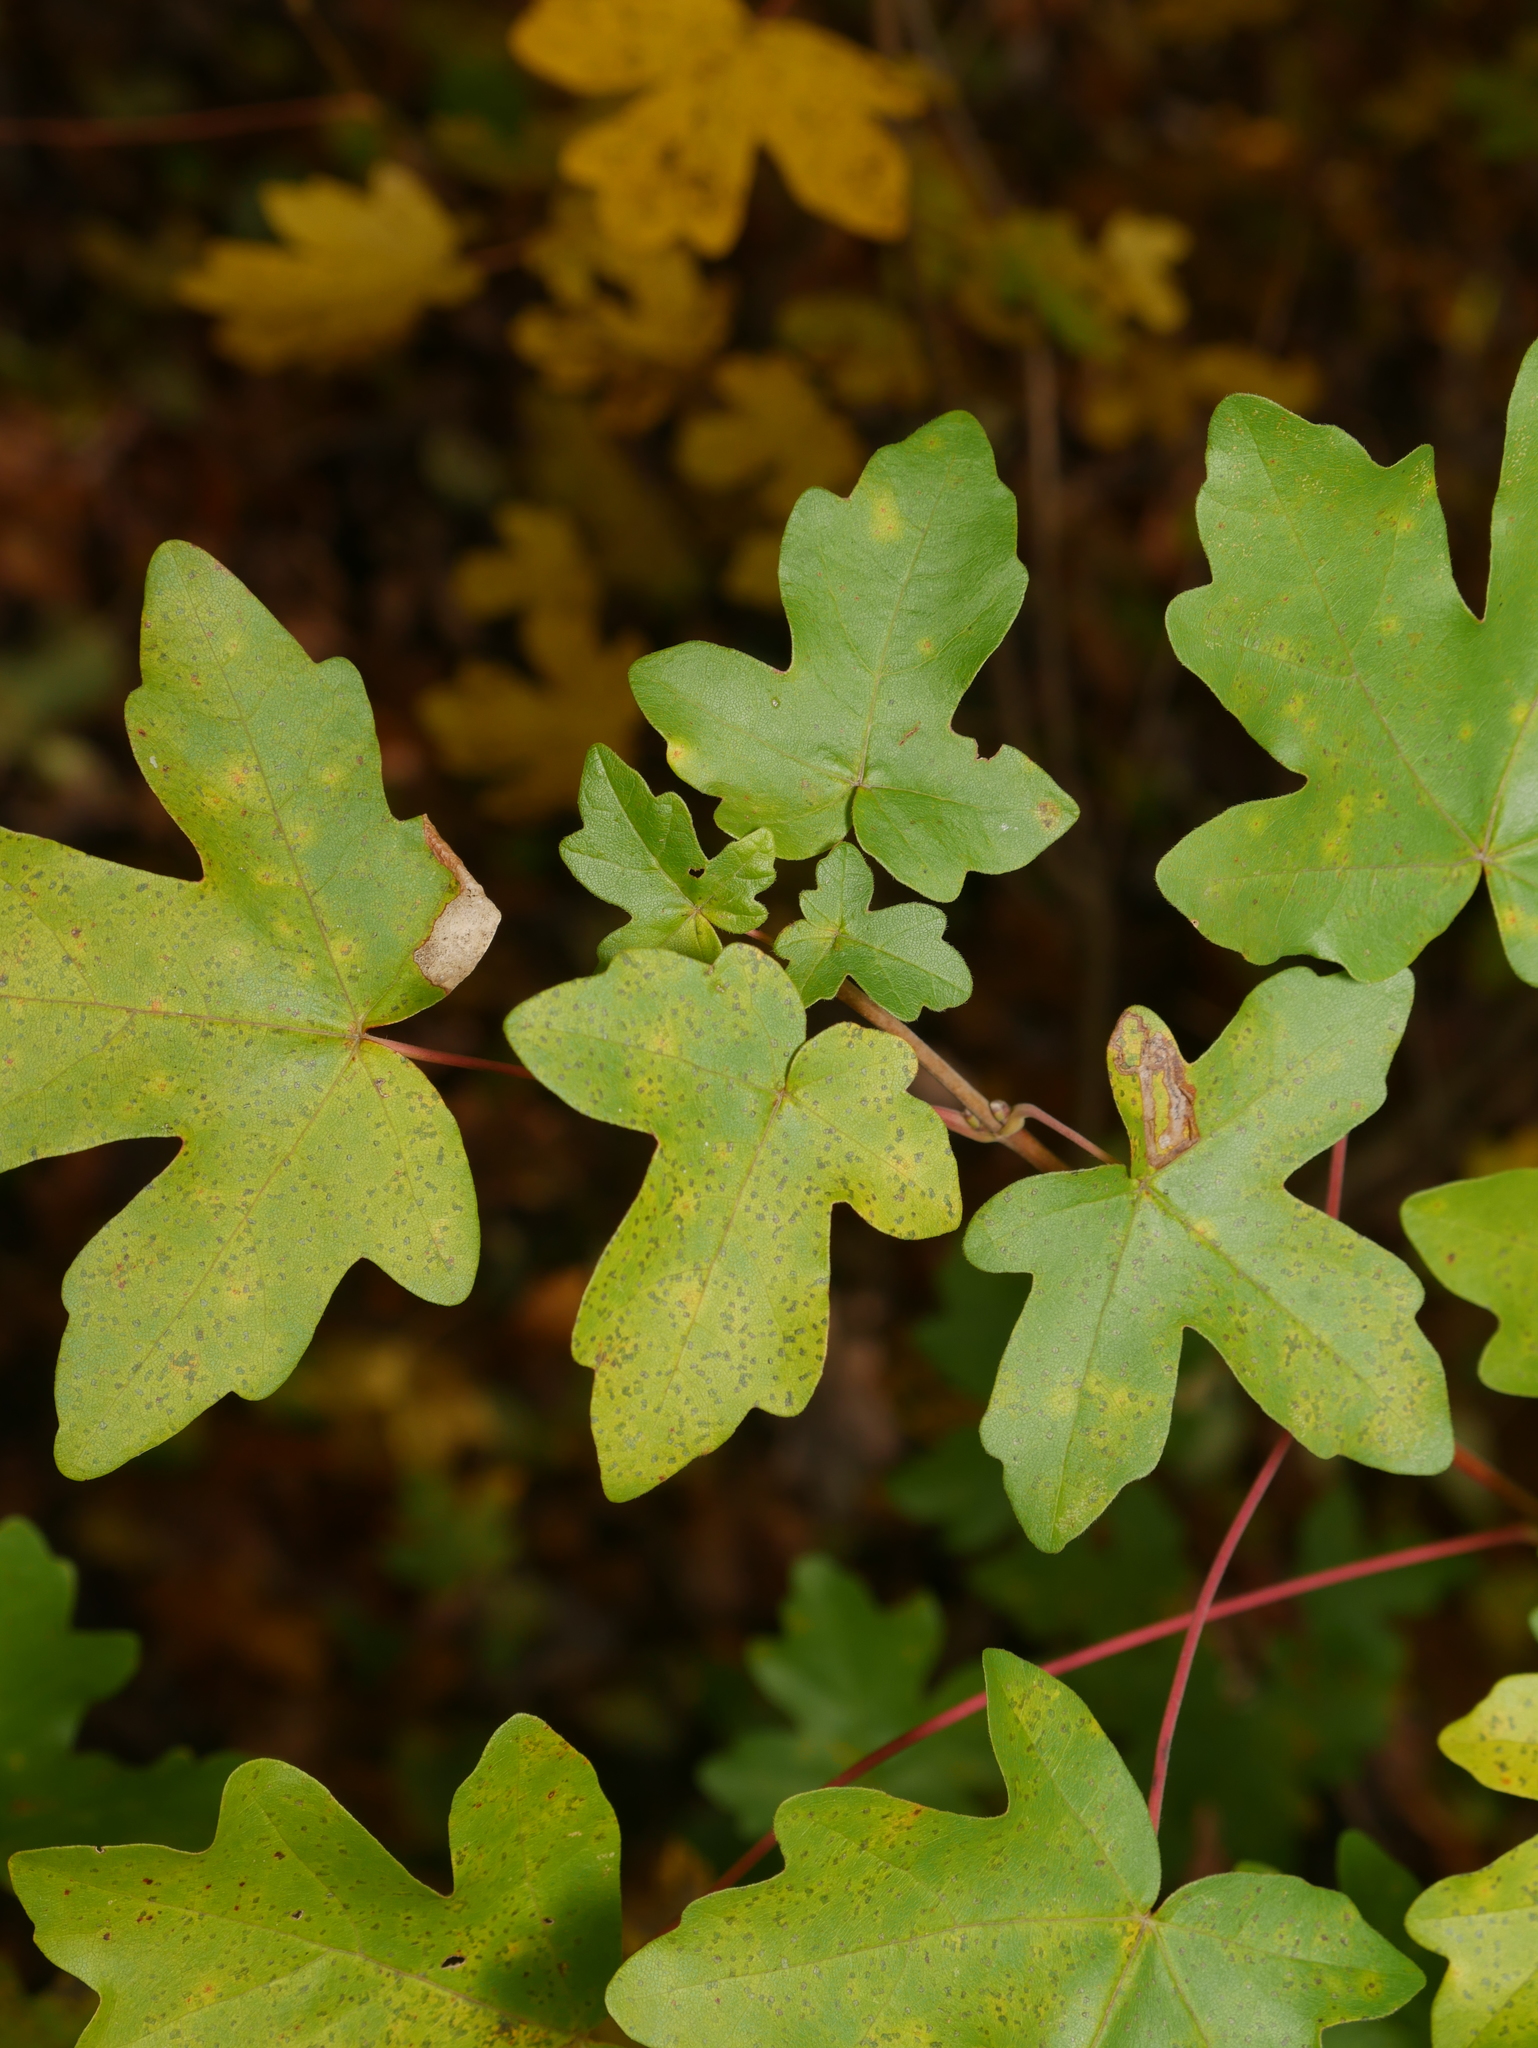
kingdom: Plantae
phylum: Tracheophyta
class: Magnoliopsida
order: Sapindales
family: Sapindaceae
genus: Acer
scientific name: Acer campestre
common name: Field maple
